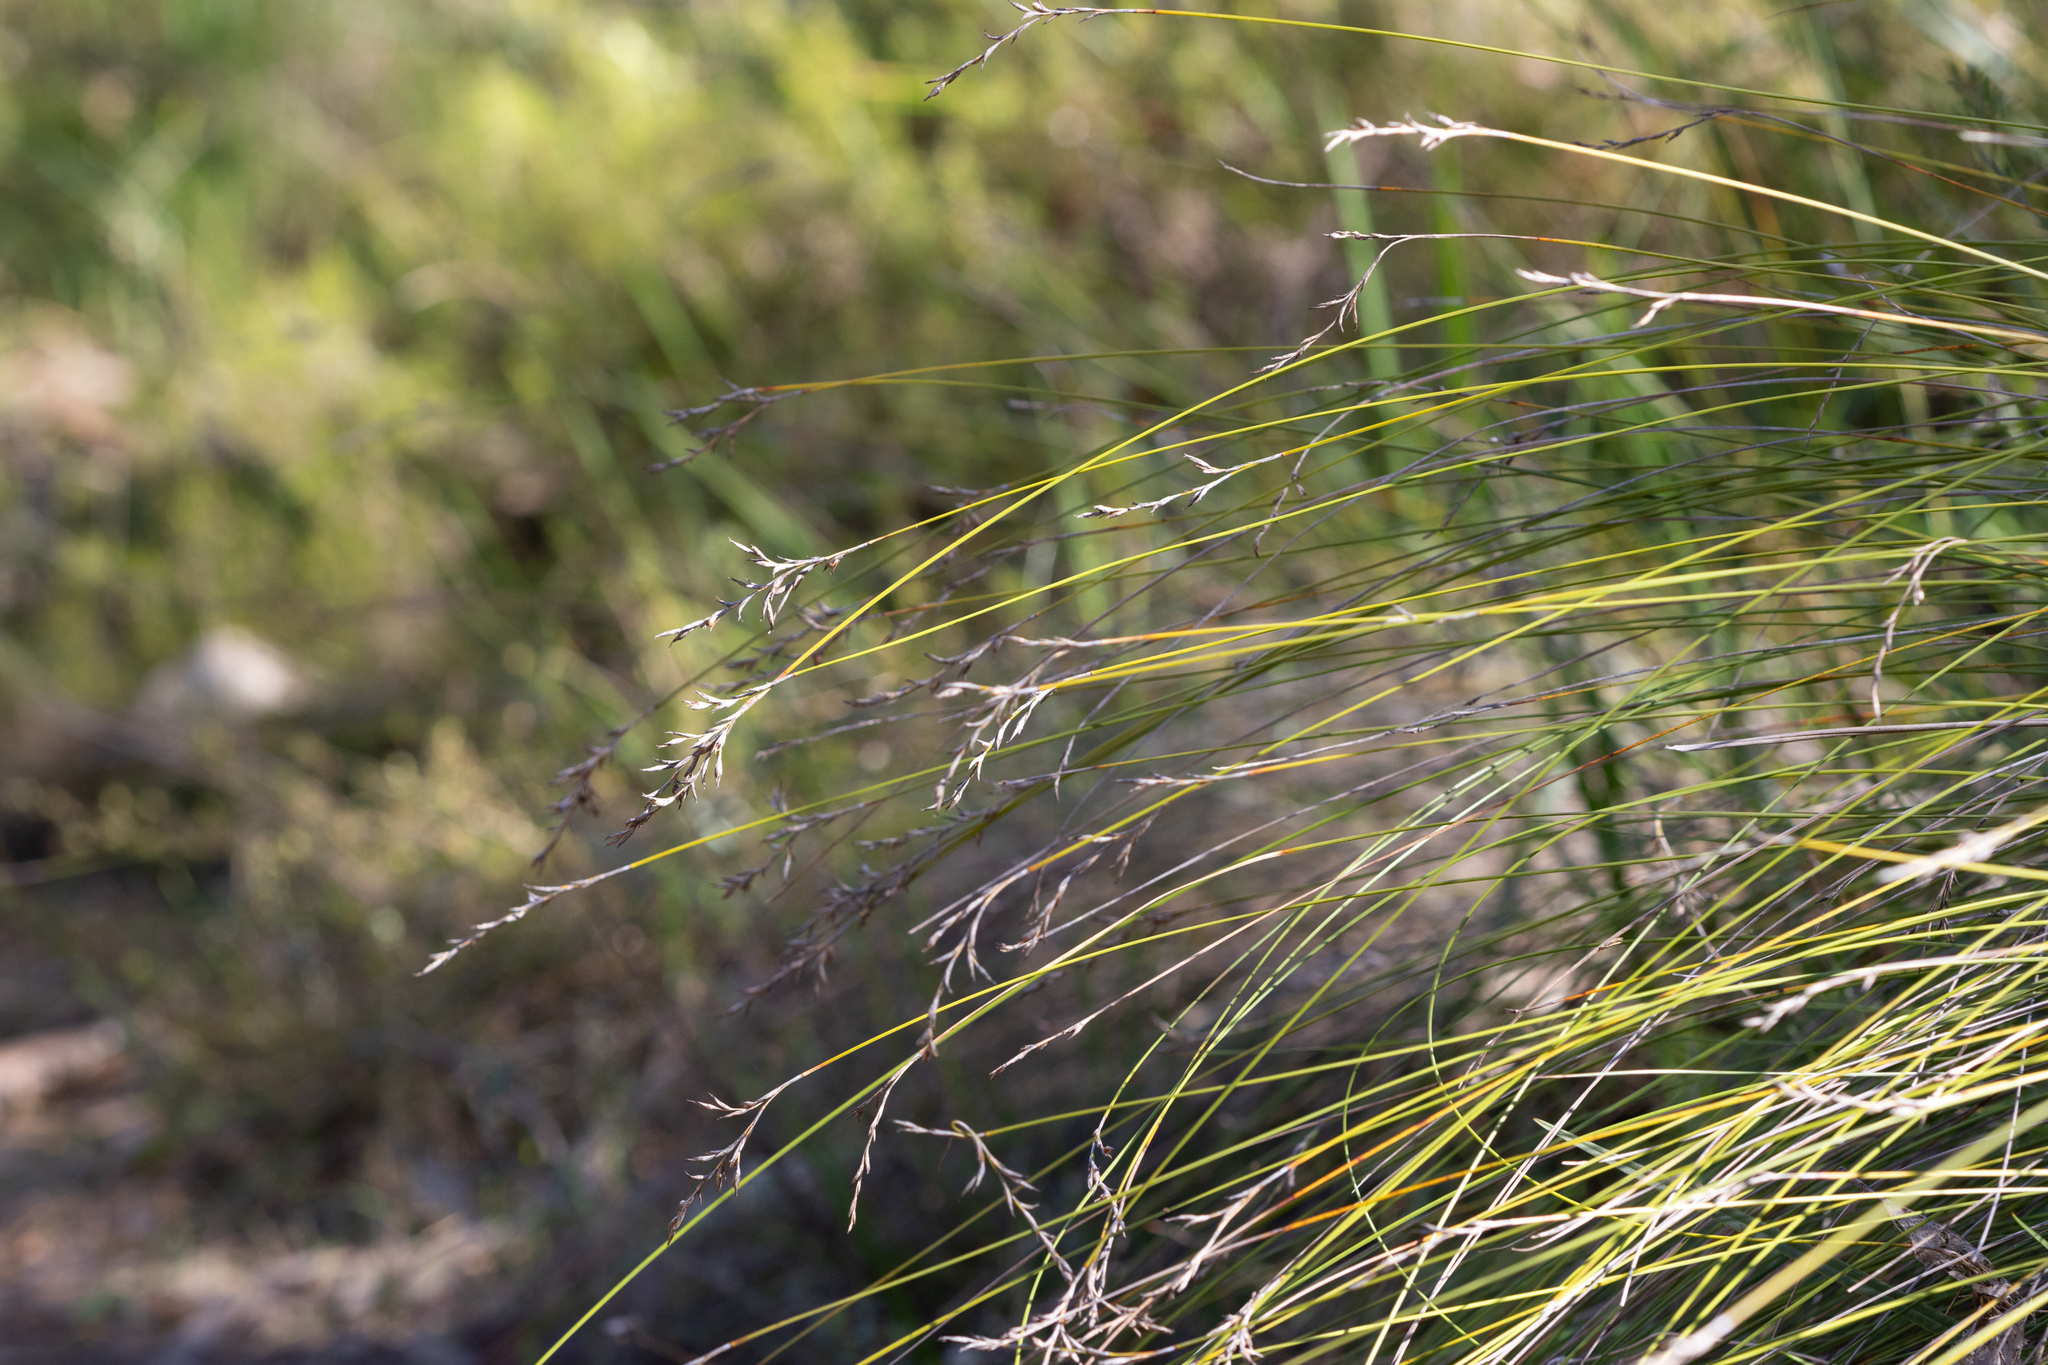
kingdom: Plantae
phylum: Tracheophyta
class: Liliopsida
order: Poales
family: Cyperaceae
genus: Lepidosperma
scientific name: Lepidosperma semiteres
